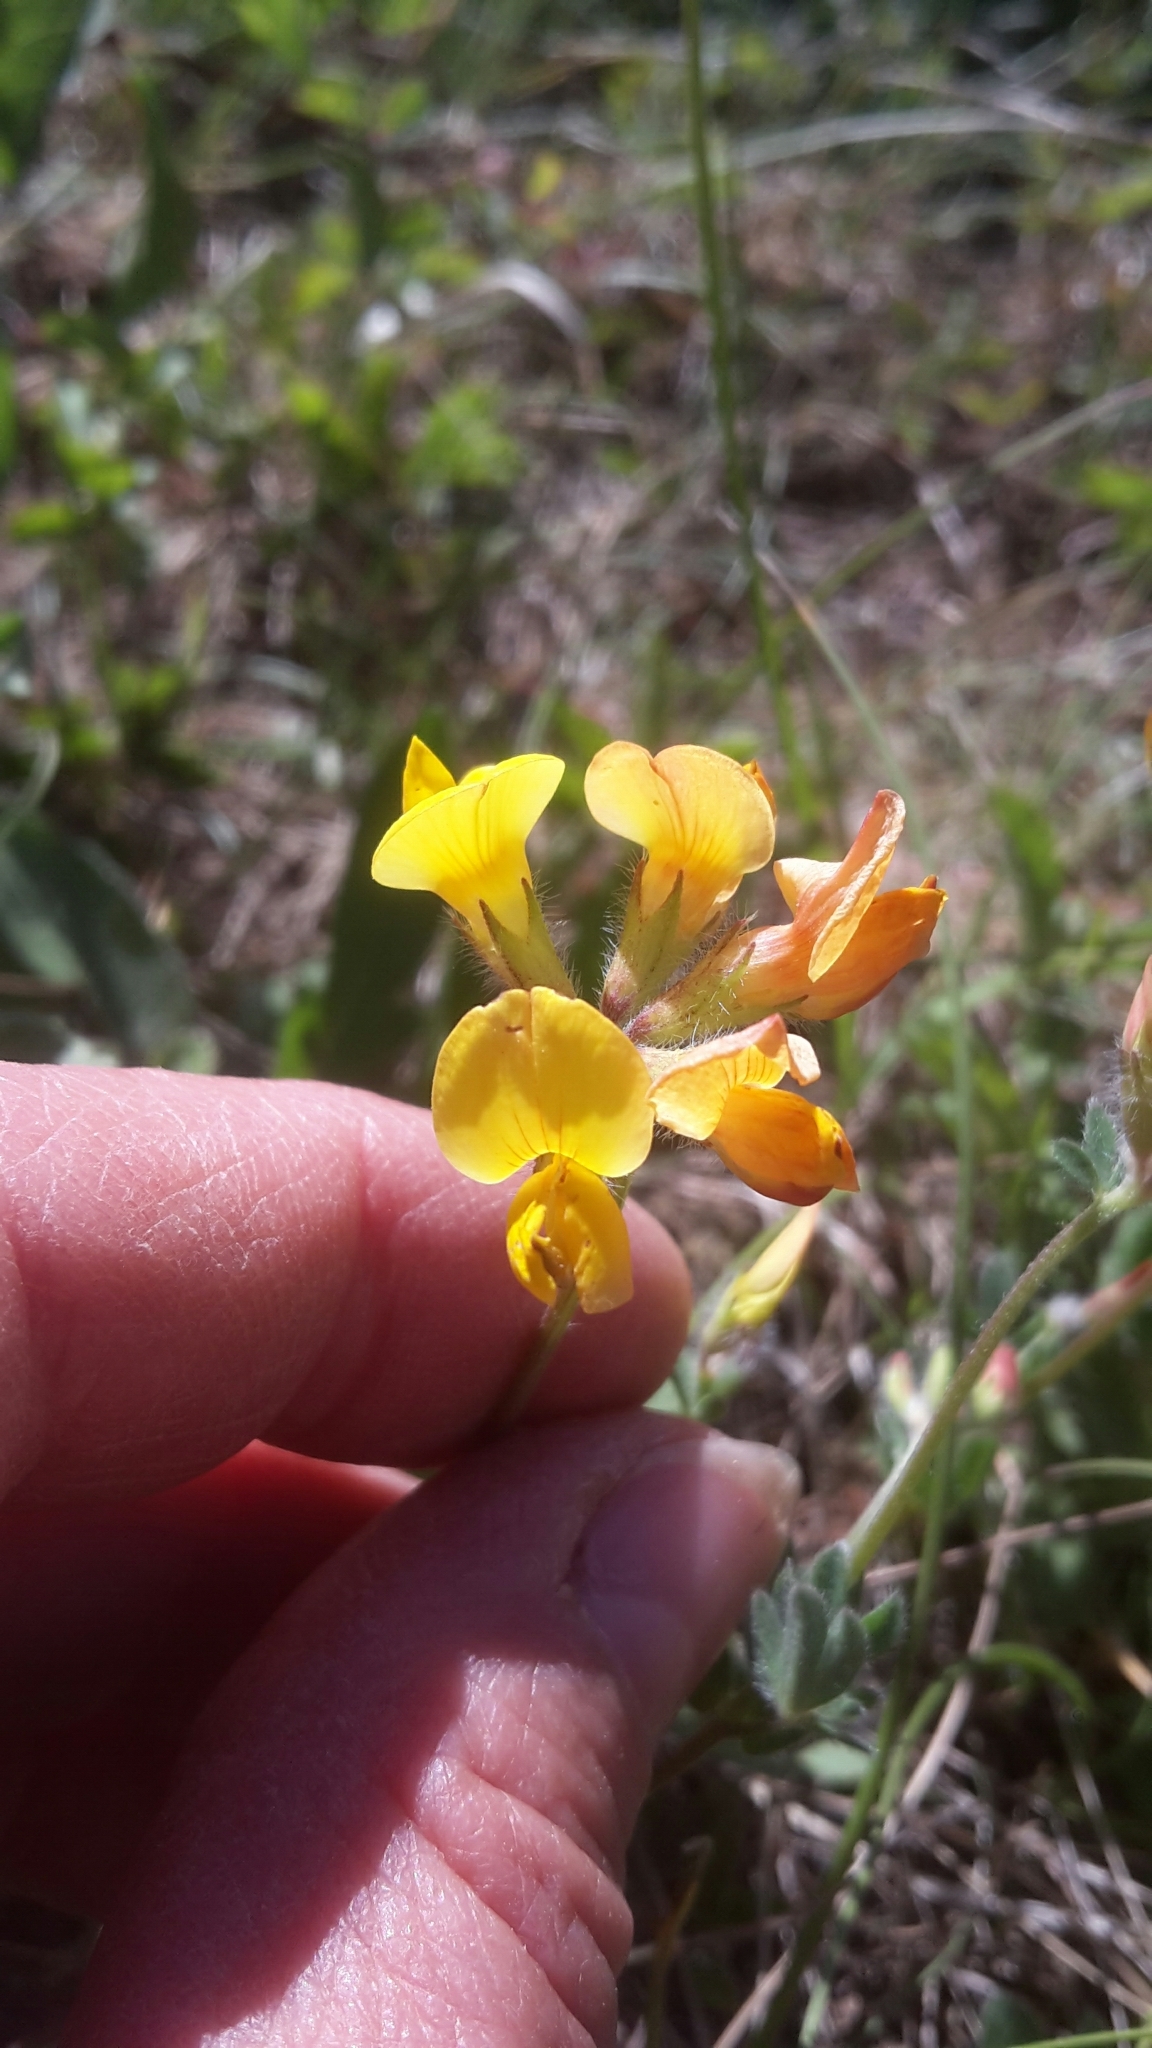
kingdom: Plantae
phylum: Tracheophyta
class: Magnoliopsida
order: Fabales
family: Fabaceae
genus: Lotus
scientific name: Lotus corniculatus
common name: Common bird's-foot-trefoil
